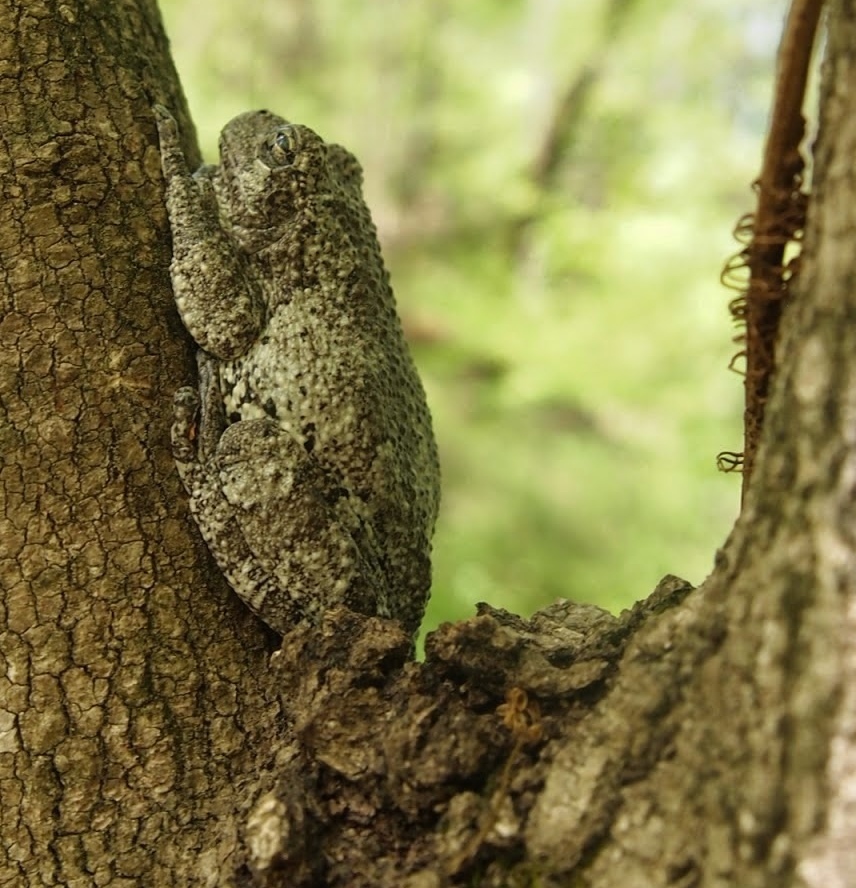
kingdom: Animalia
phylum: Chordata
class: Amphibia
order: Anura
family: Hylidae
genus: Dryophytes
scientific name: Dryophytes chrysoscelis
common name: Cope's gray treefrog
